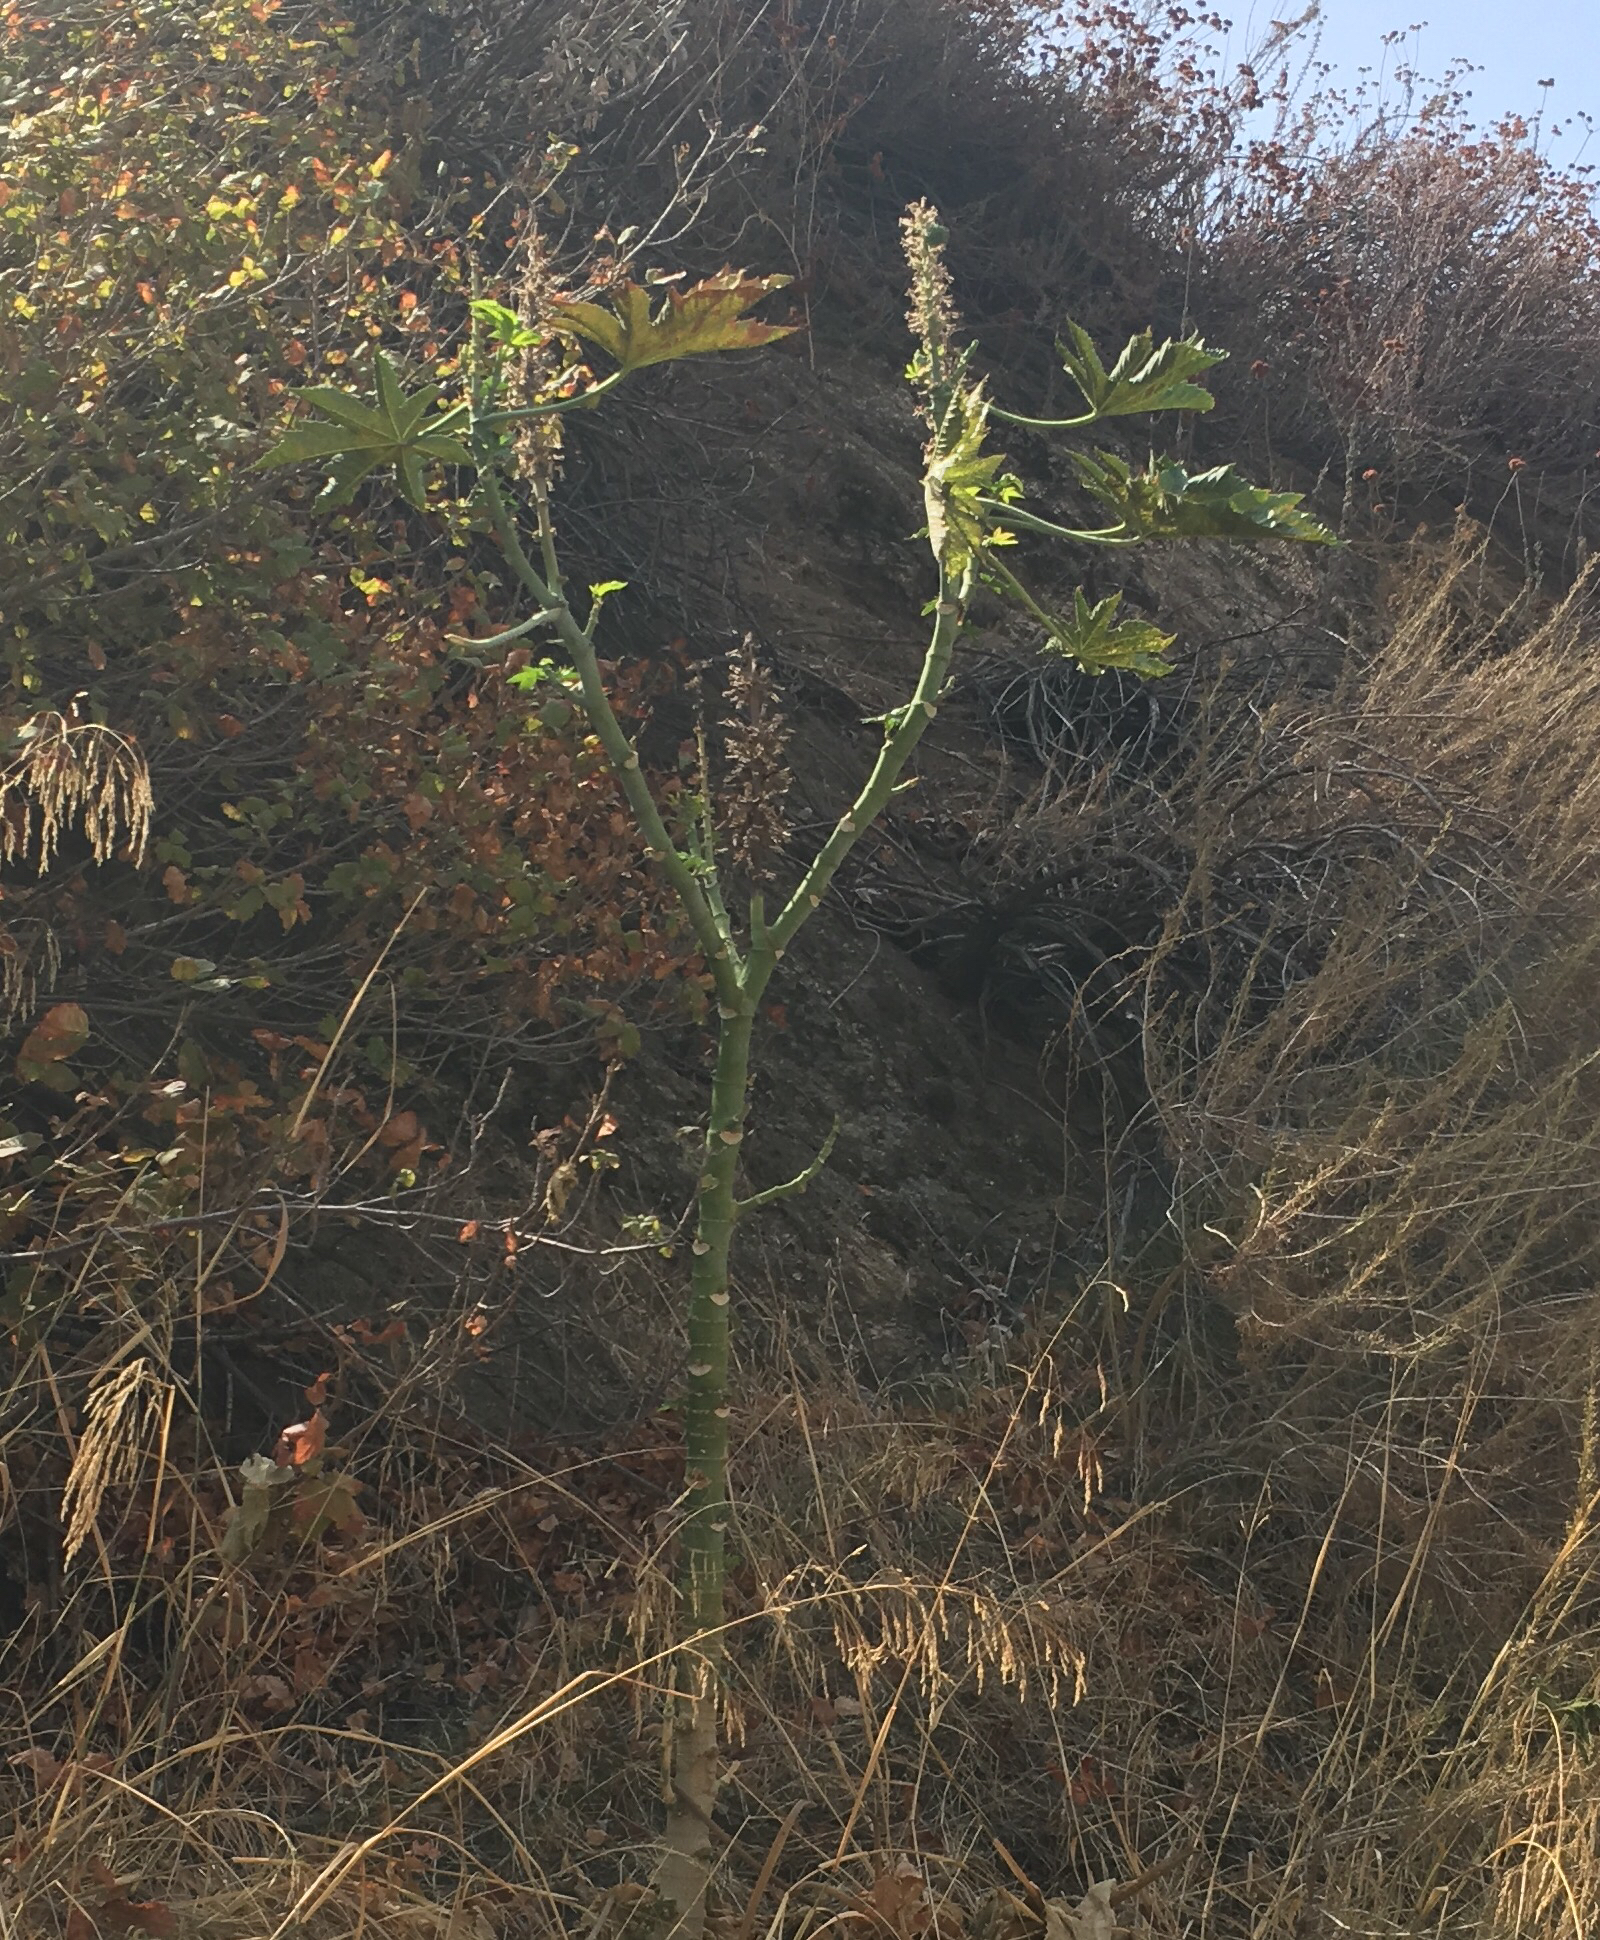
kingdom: Plantae
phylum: Tracheophyta
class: Magnoliopsida
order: Malpighiales
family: Euphorbiaceae
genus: Ricinus
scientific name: Ricinus communis
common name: Castor-oil-plant
